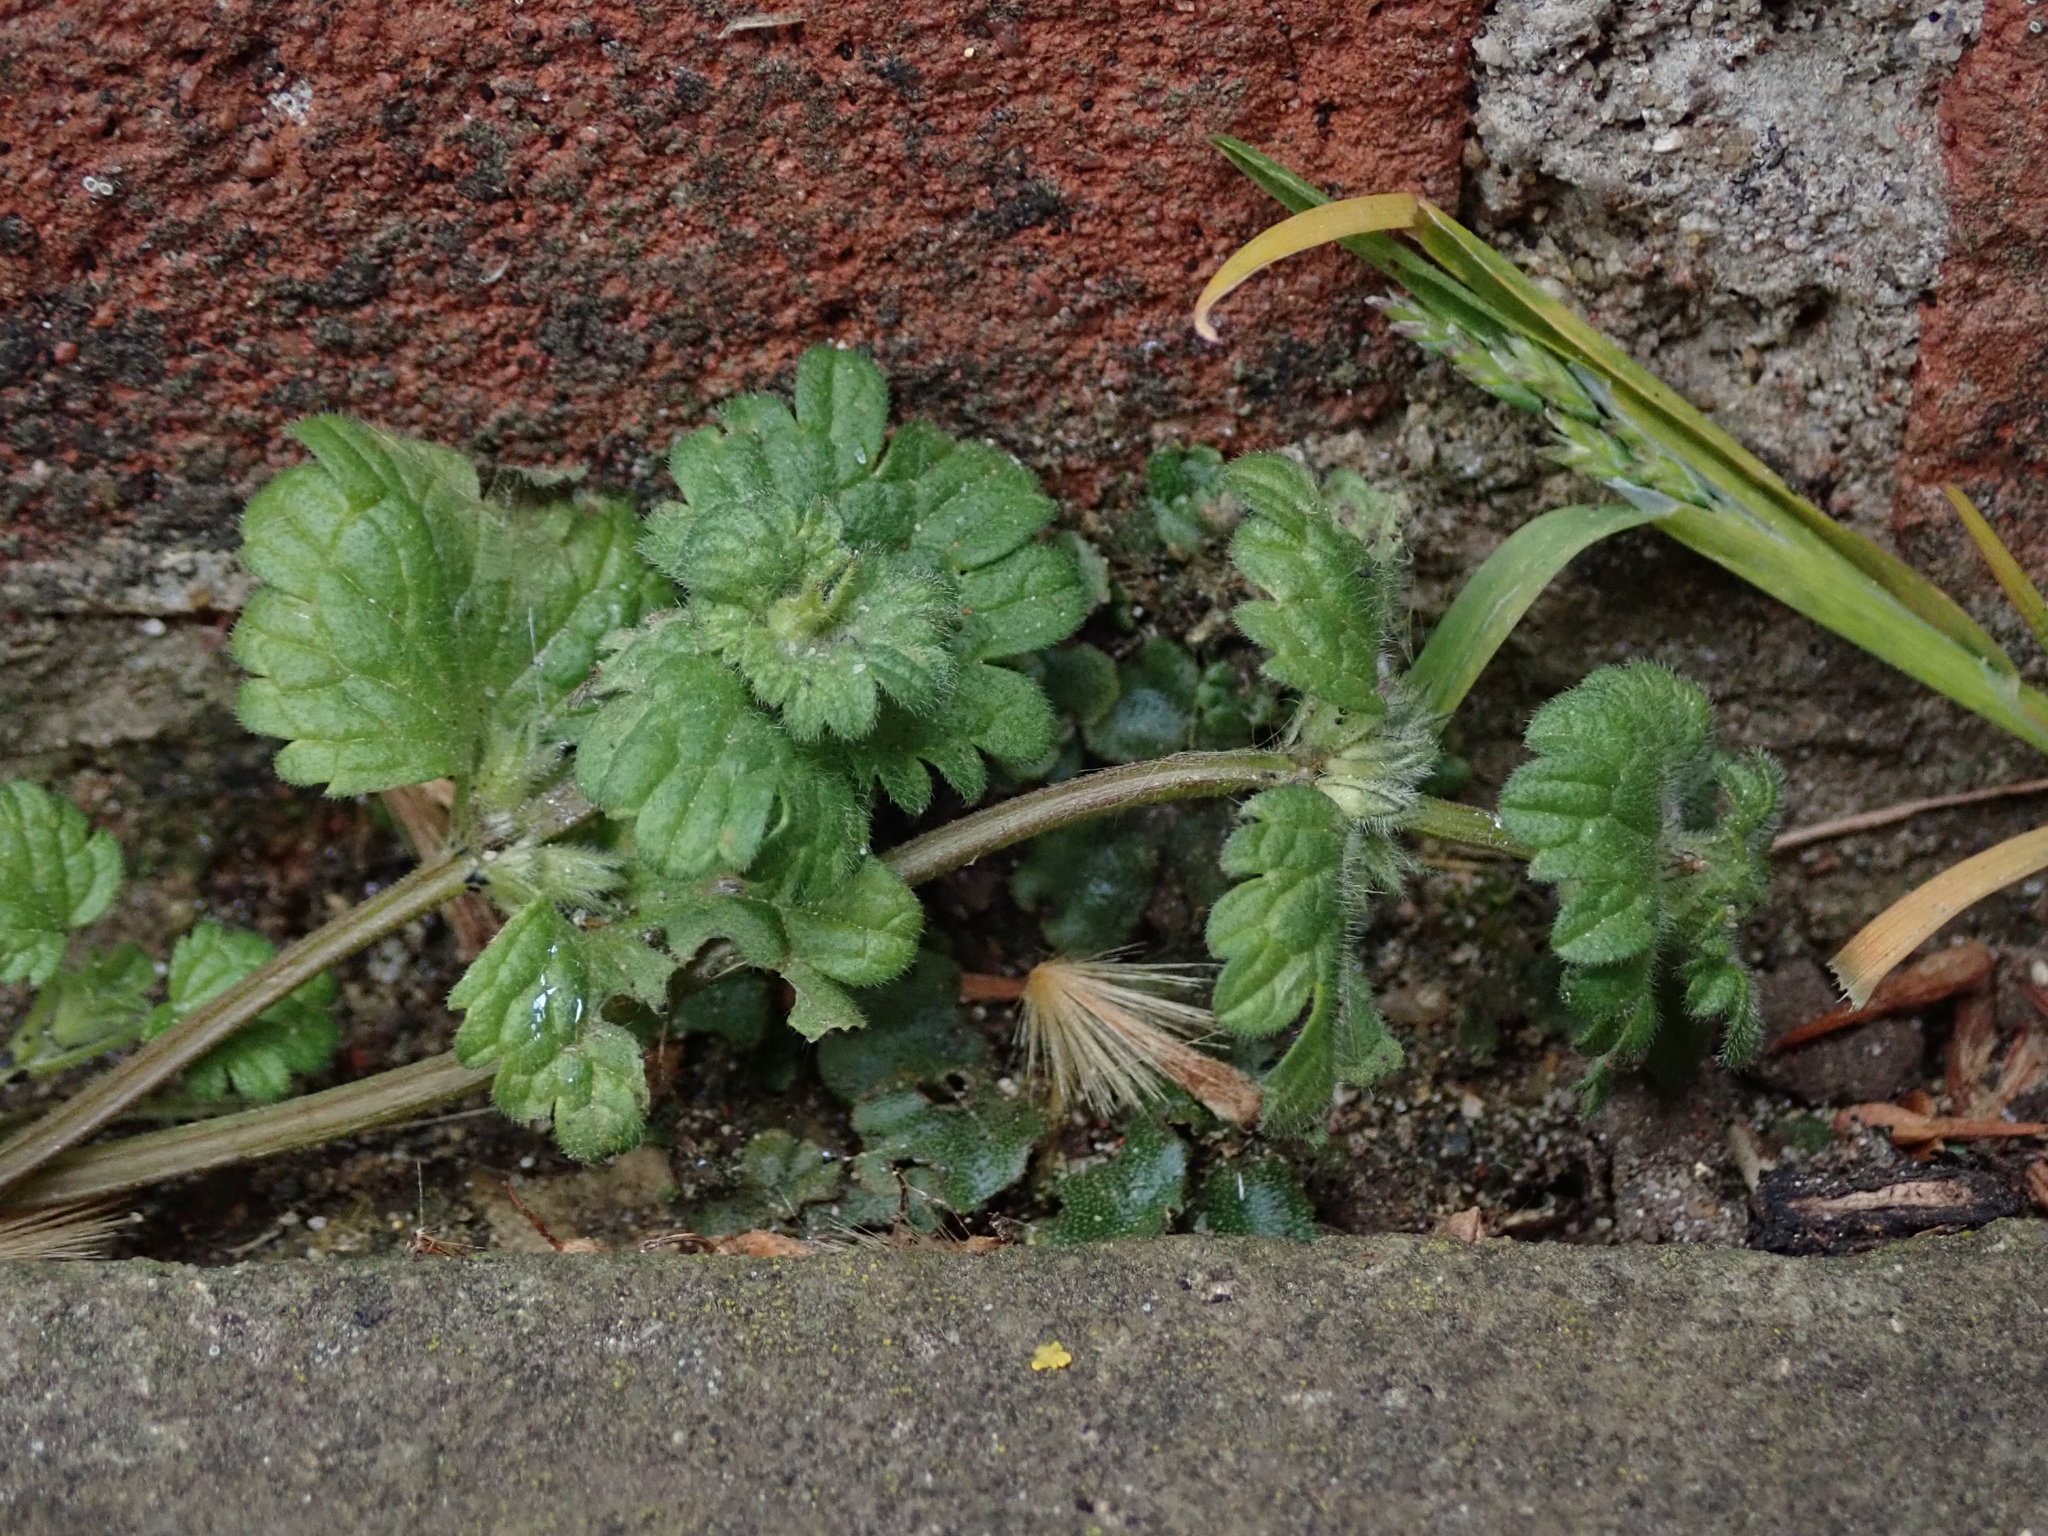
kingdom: Plantae
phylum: Tracheophyta
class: Magnoliopsida
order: Lamiales
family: Lamiaceae
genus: Lamium
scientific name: Lamium amplexicaule
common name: Henbit dead-nettle
